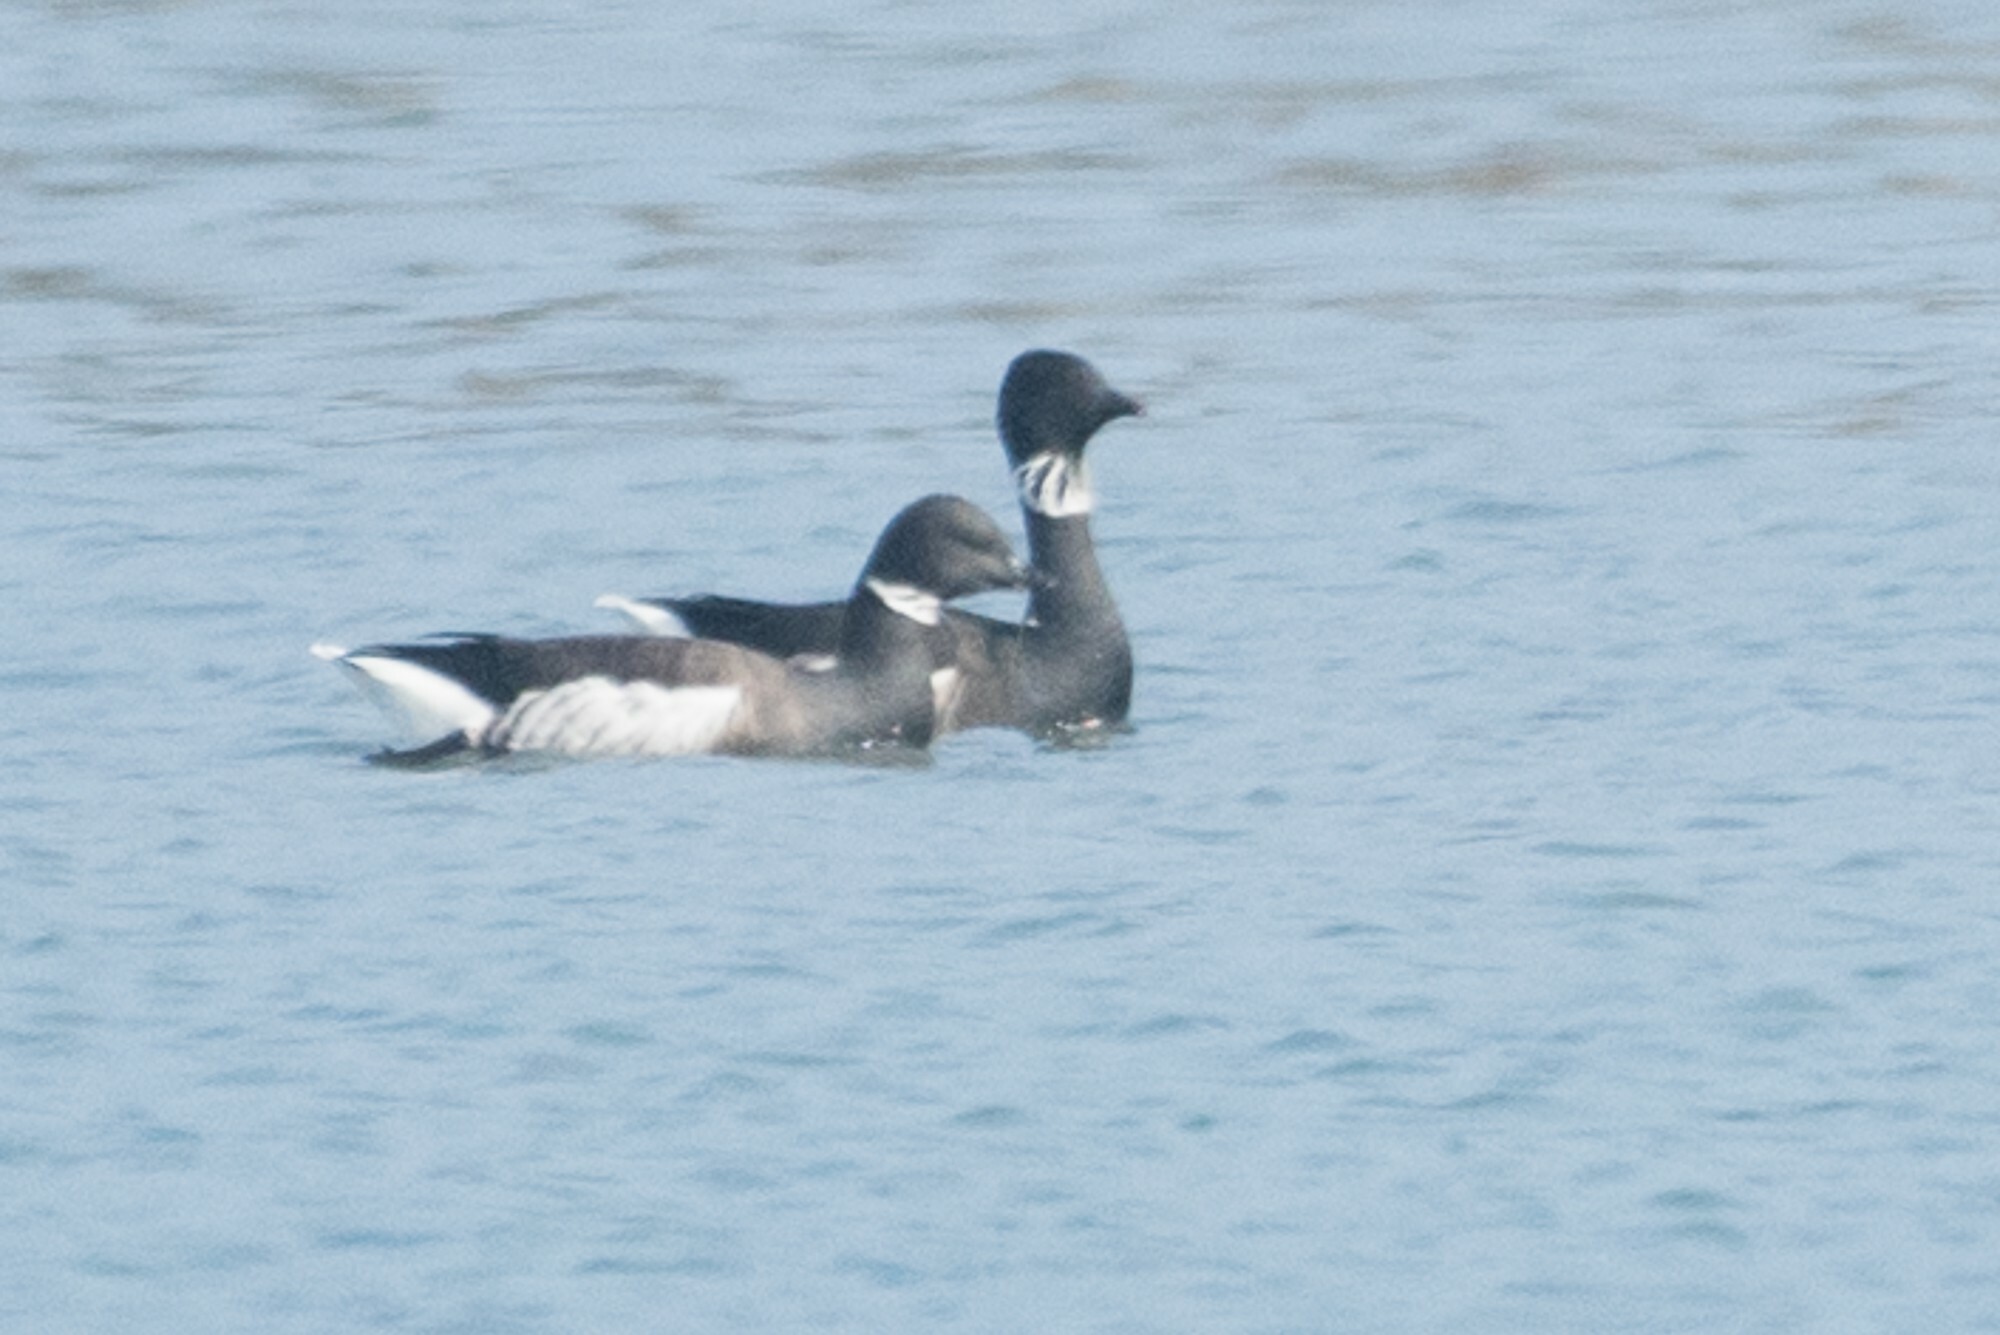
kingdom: Animalia
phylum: Chordata
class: Aves
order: Anseriformes
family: Anatidae
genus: Branta
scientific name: Branta bernicla
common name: Brant goose
